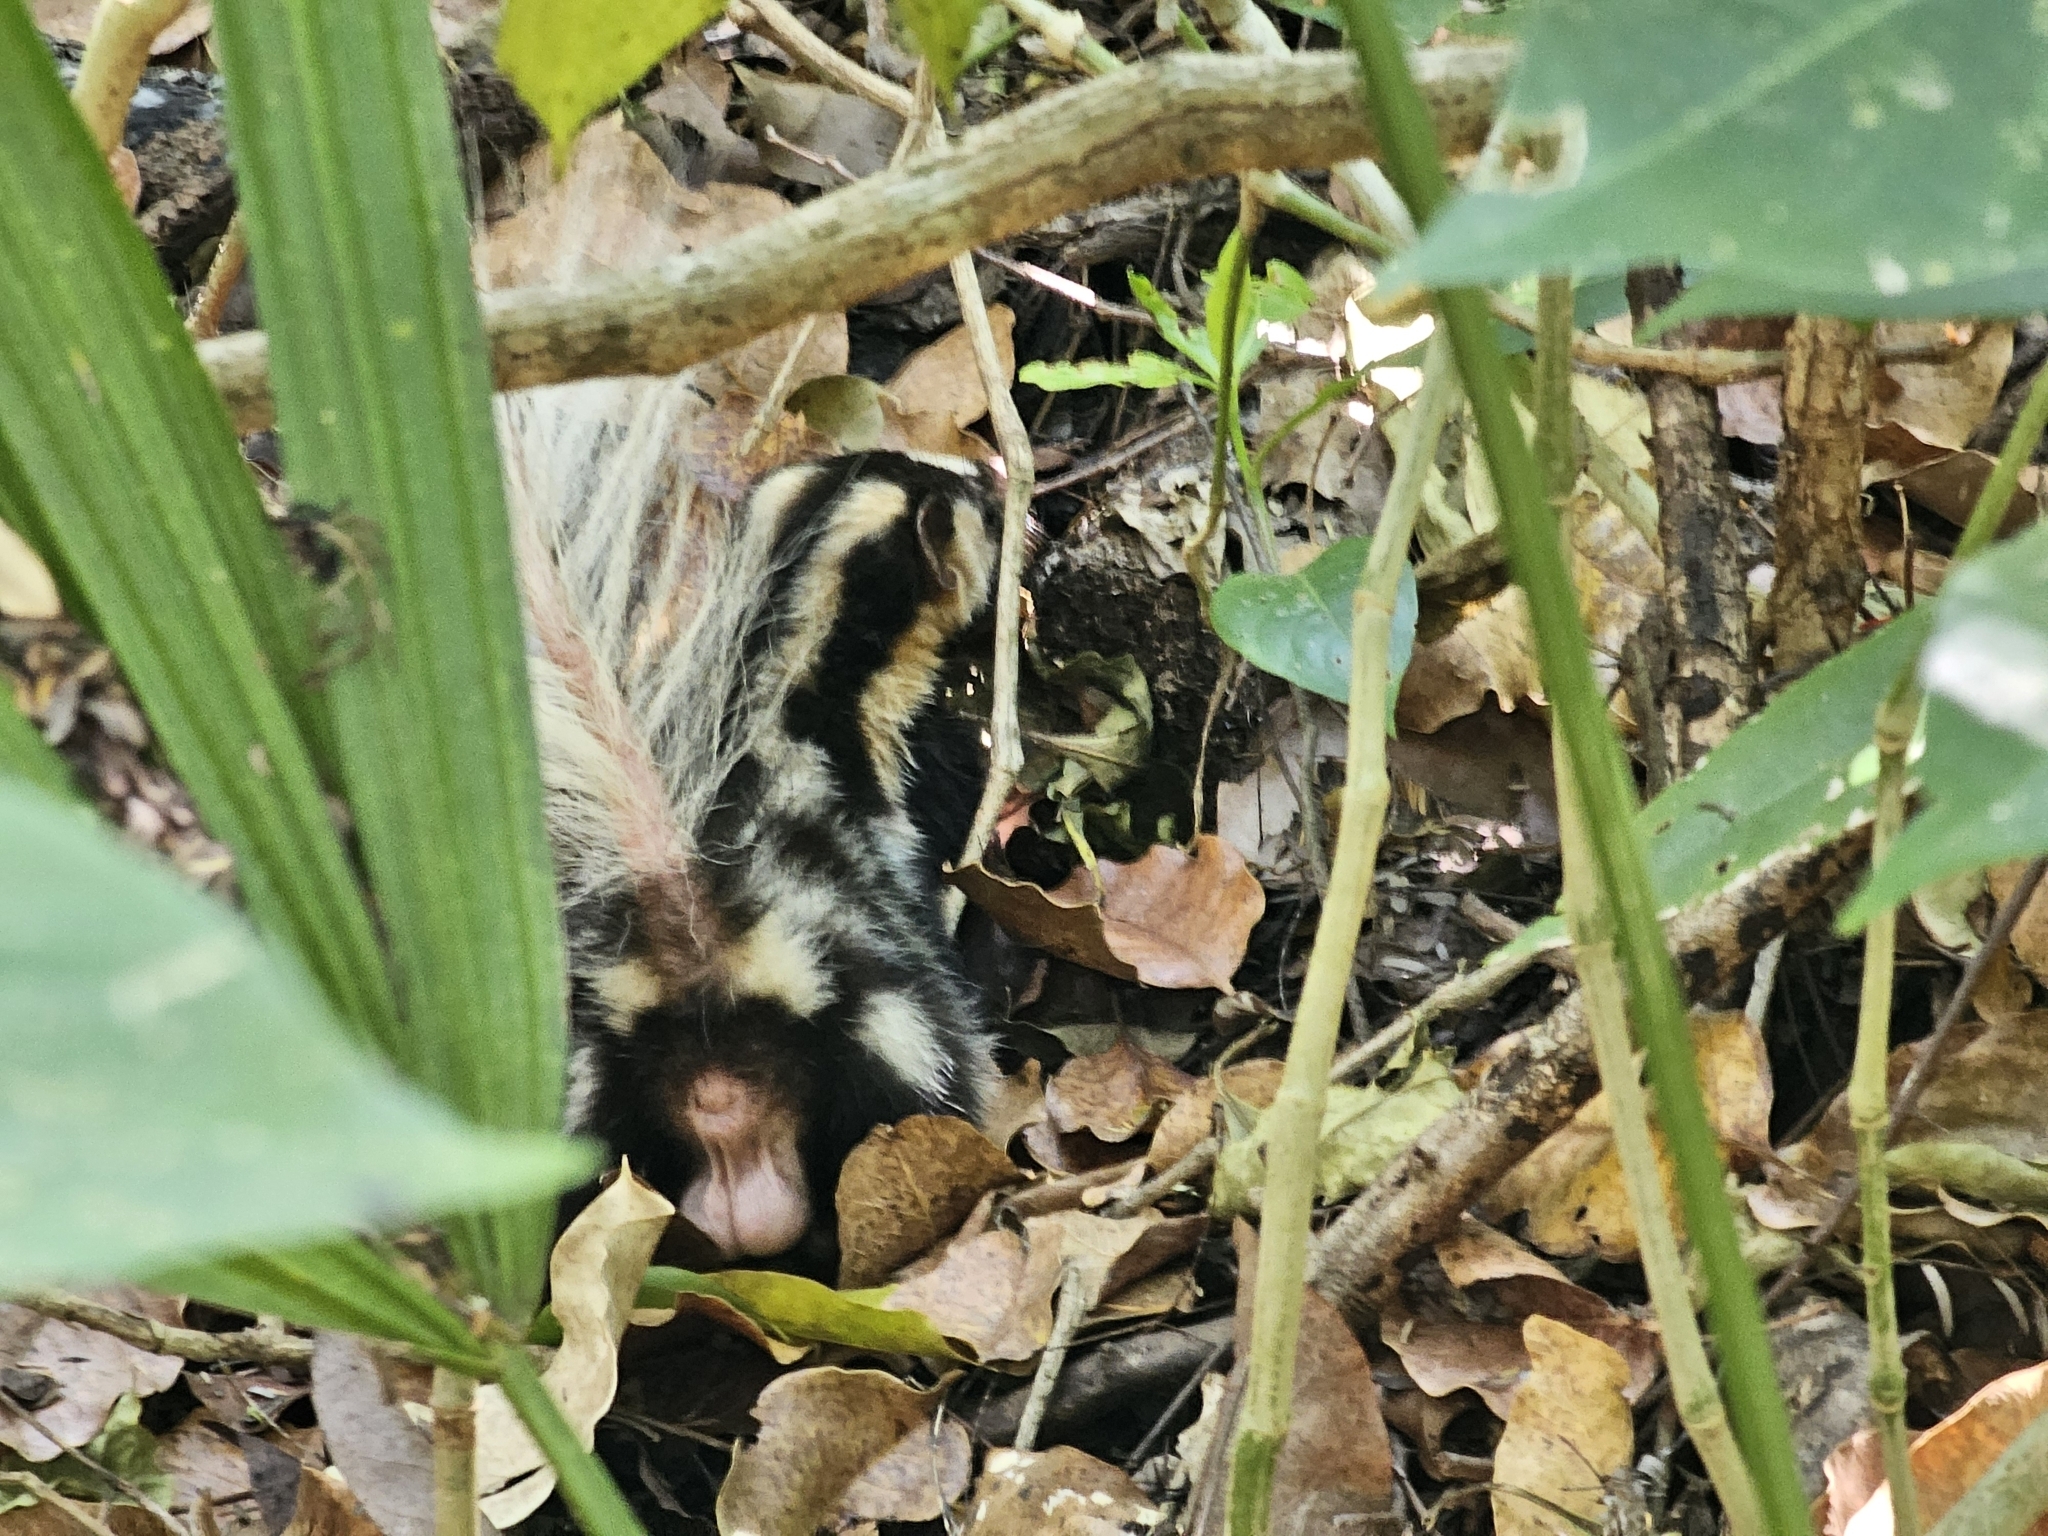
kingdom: Animalia
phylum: Chordata
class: Mammalia
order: Carnivora
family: Mephitidae
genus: Spilogale
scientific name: Spilogale angustifrons
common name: Southern spotted skunk
